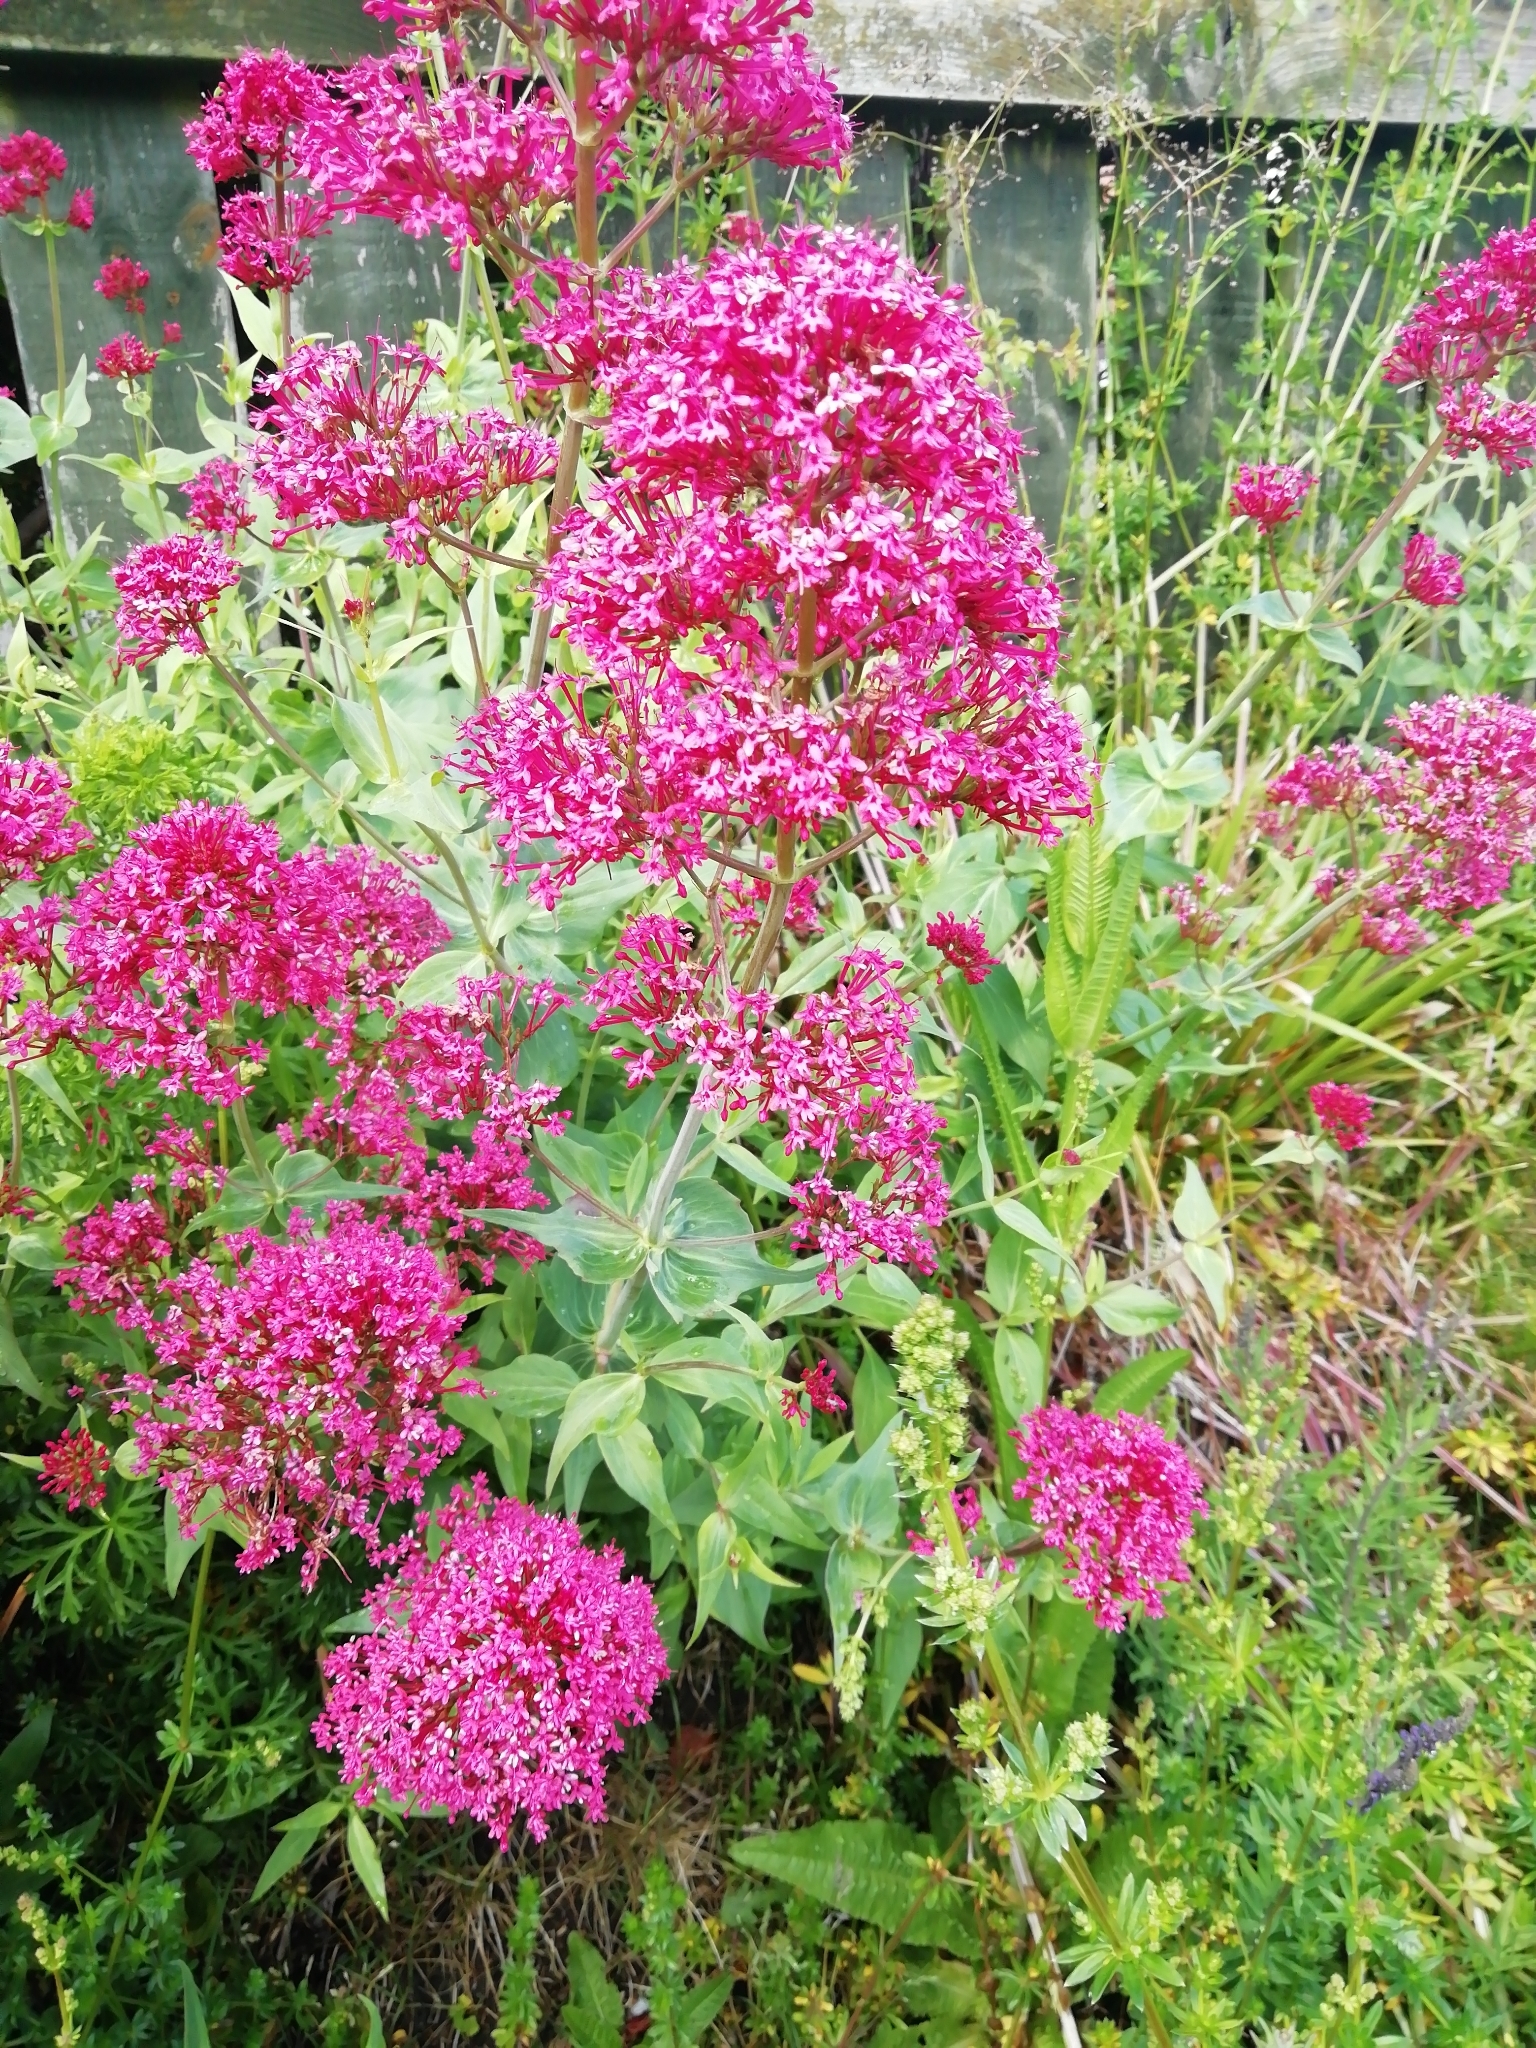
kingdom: Plantae
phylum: Tracheophyta
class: Magnoliopsida
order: Dipsacales
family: Caprifoliaceae
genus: Centranthus
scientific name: Centranthus ruber
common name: Red valerian
